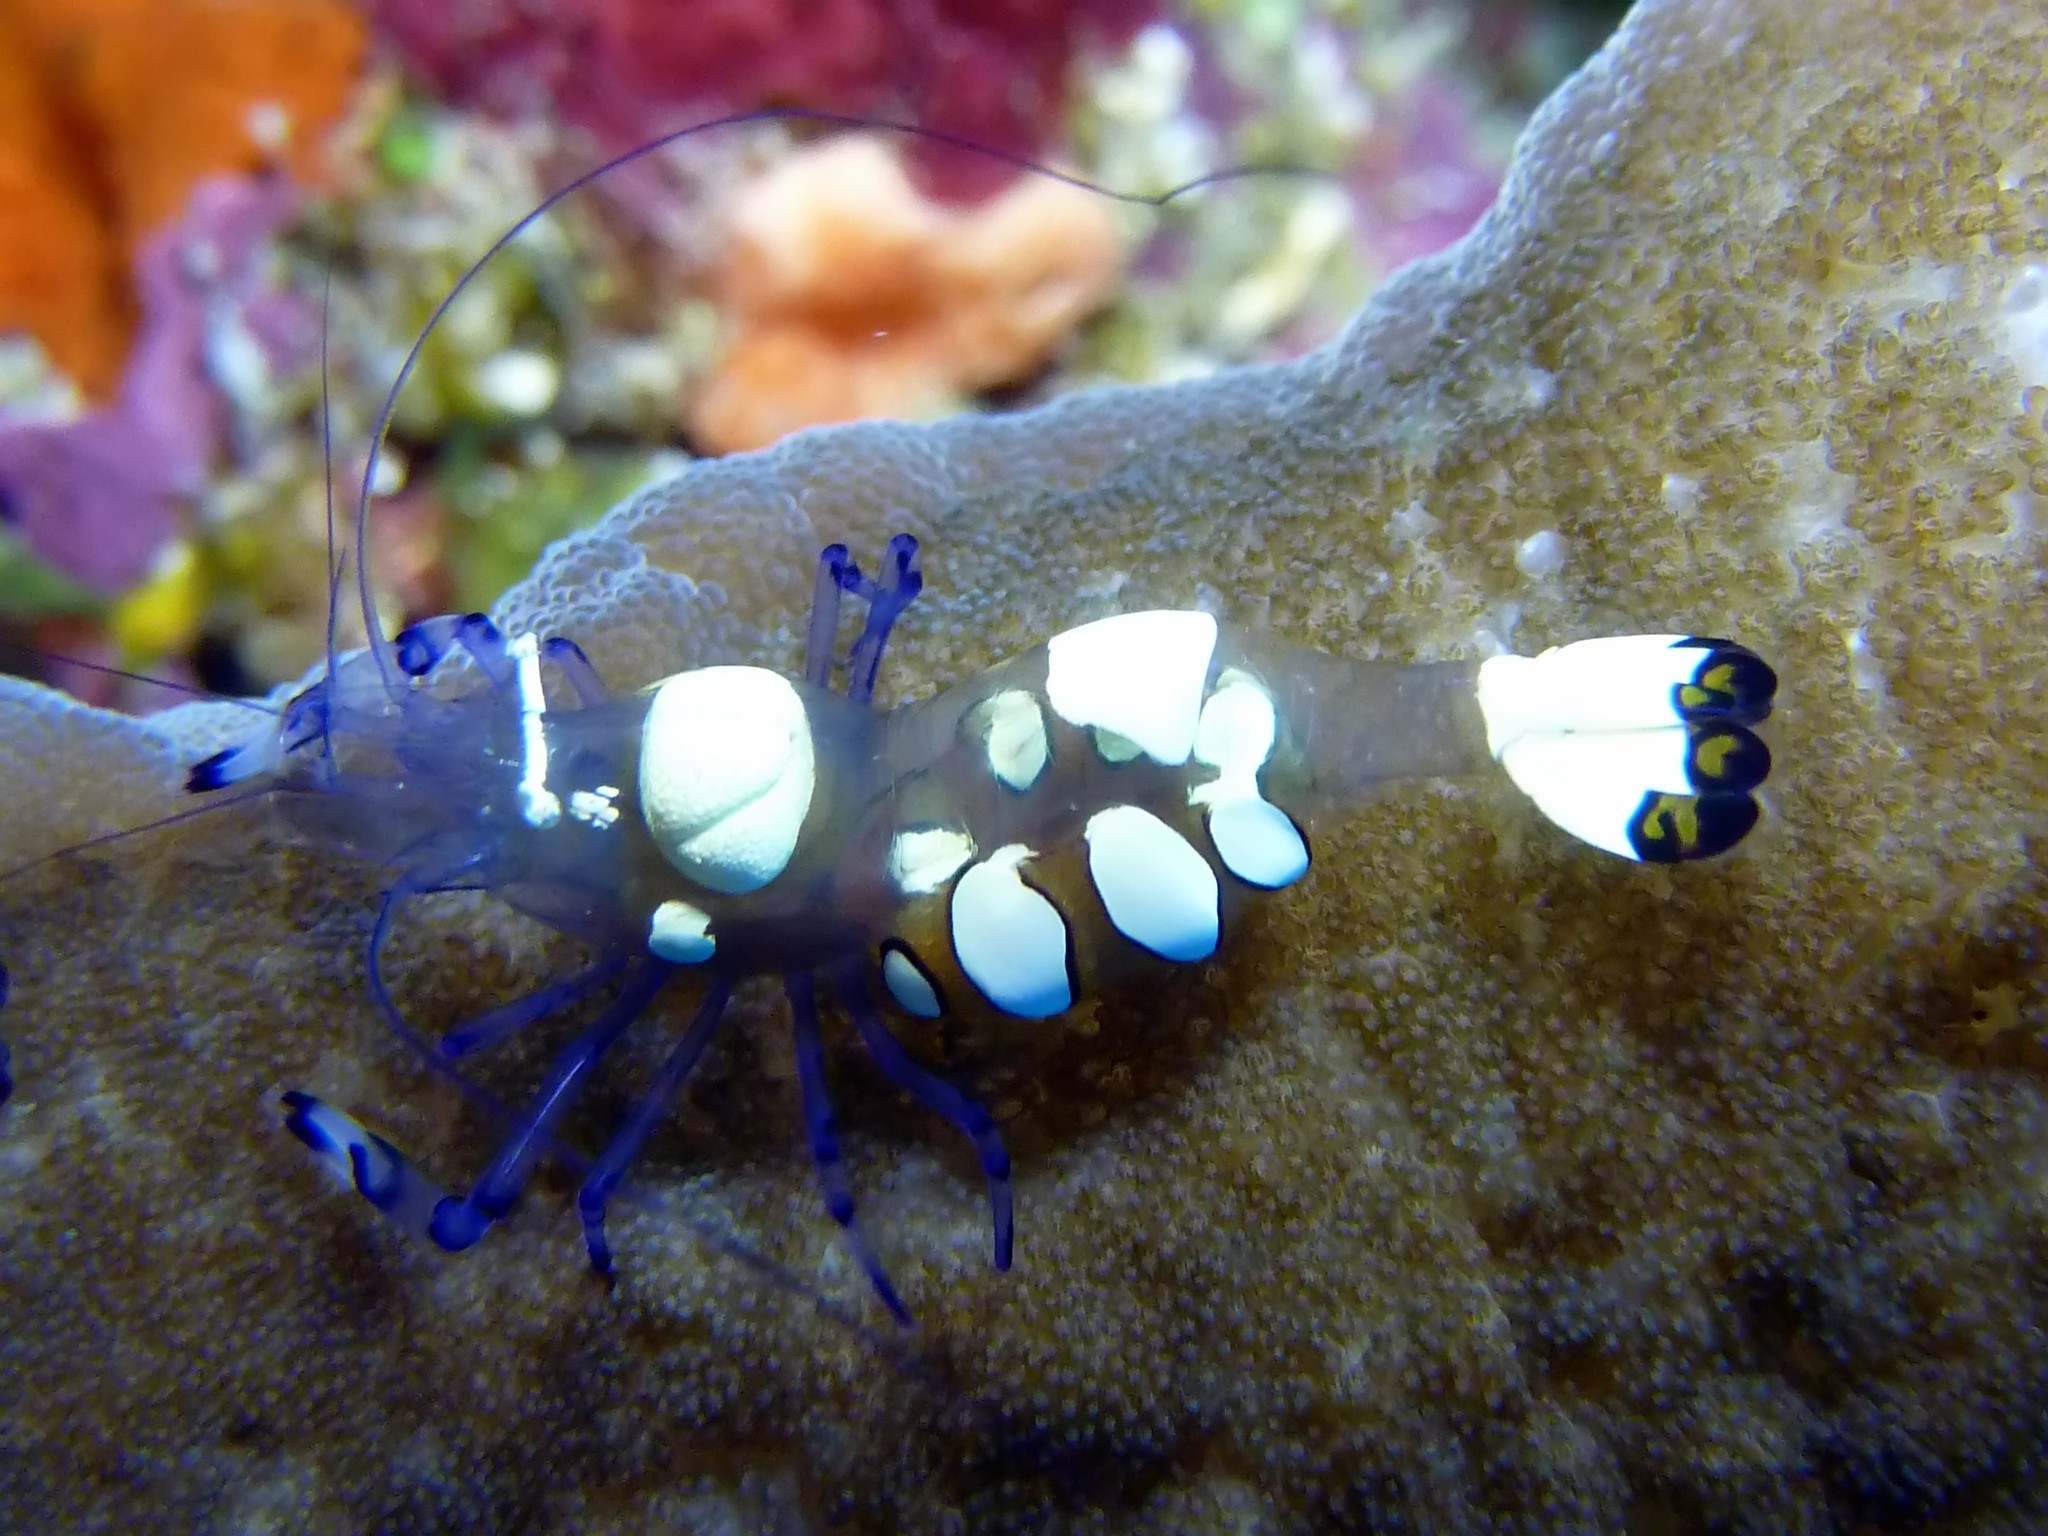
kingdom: Animalia
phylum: Arthropoda
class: Malacostraca
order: Decapoda
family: Palaemonidae
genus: Ancylocaris
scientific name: Ancylocaris brevicarpalis
